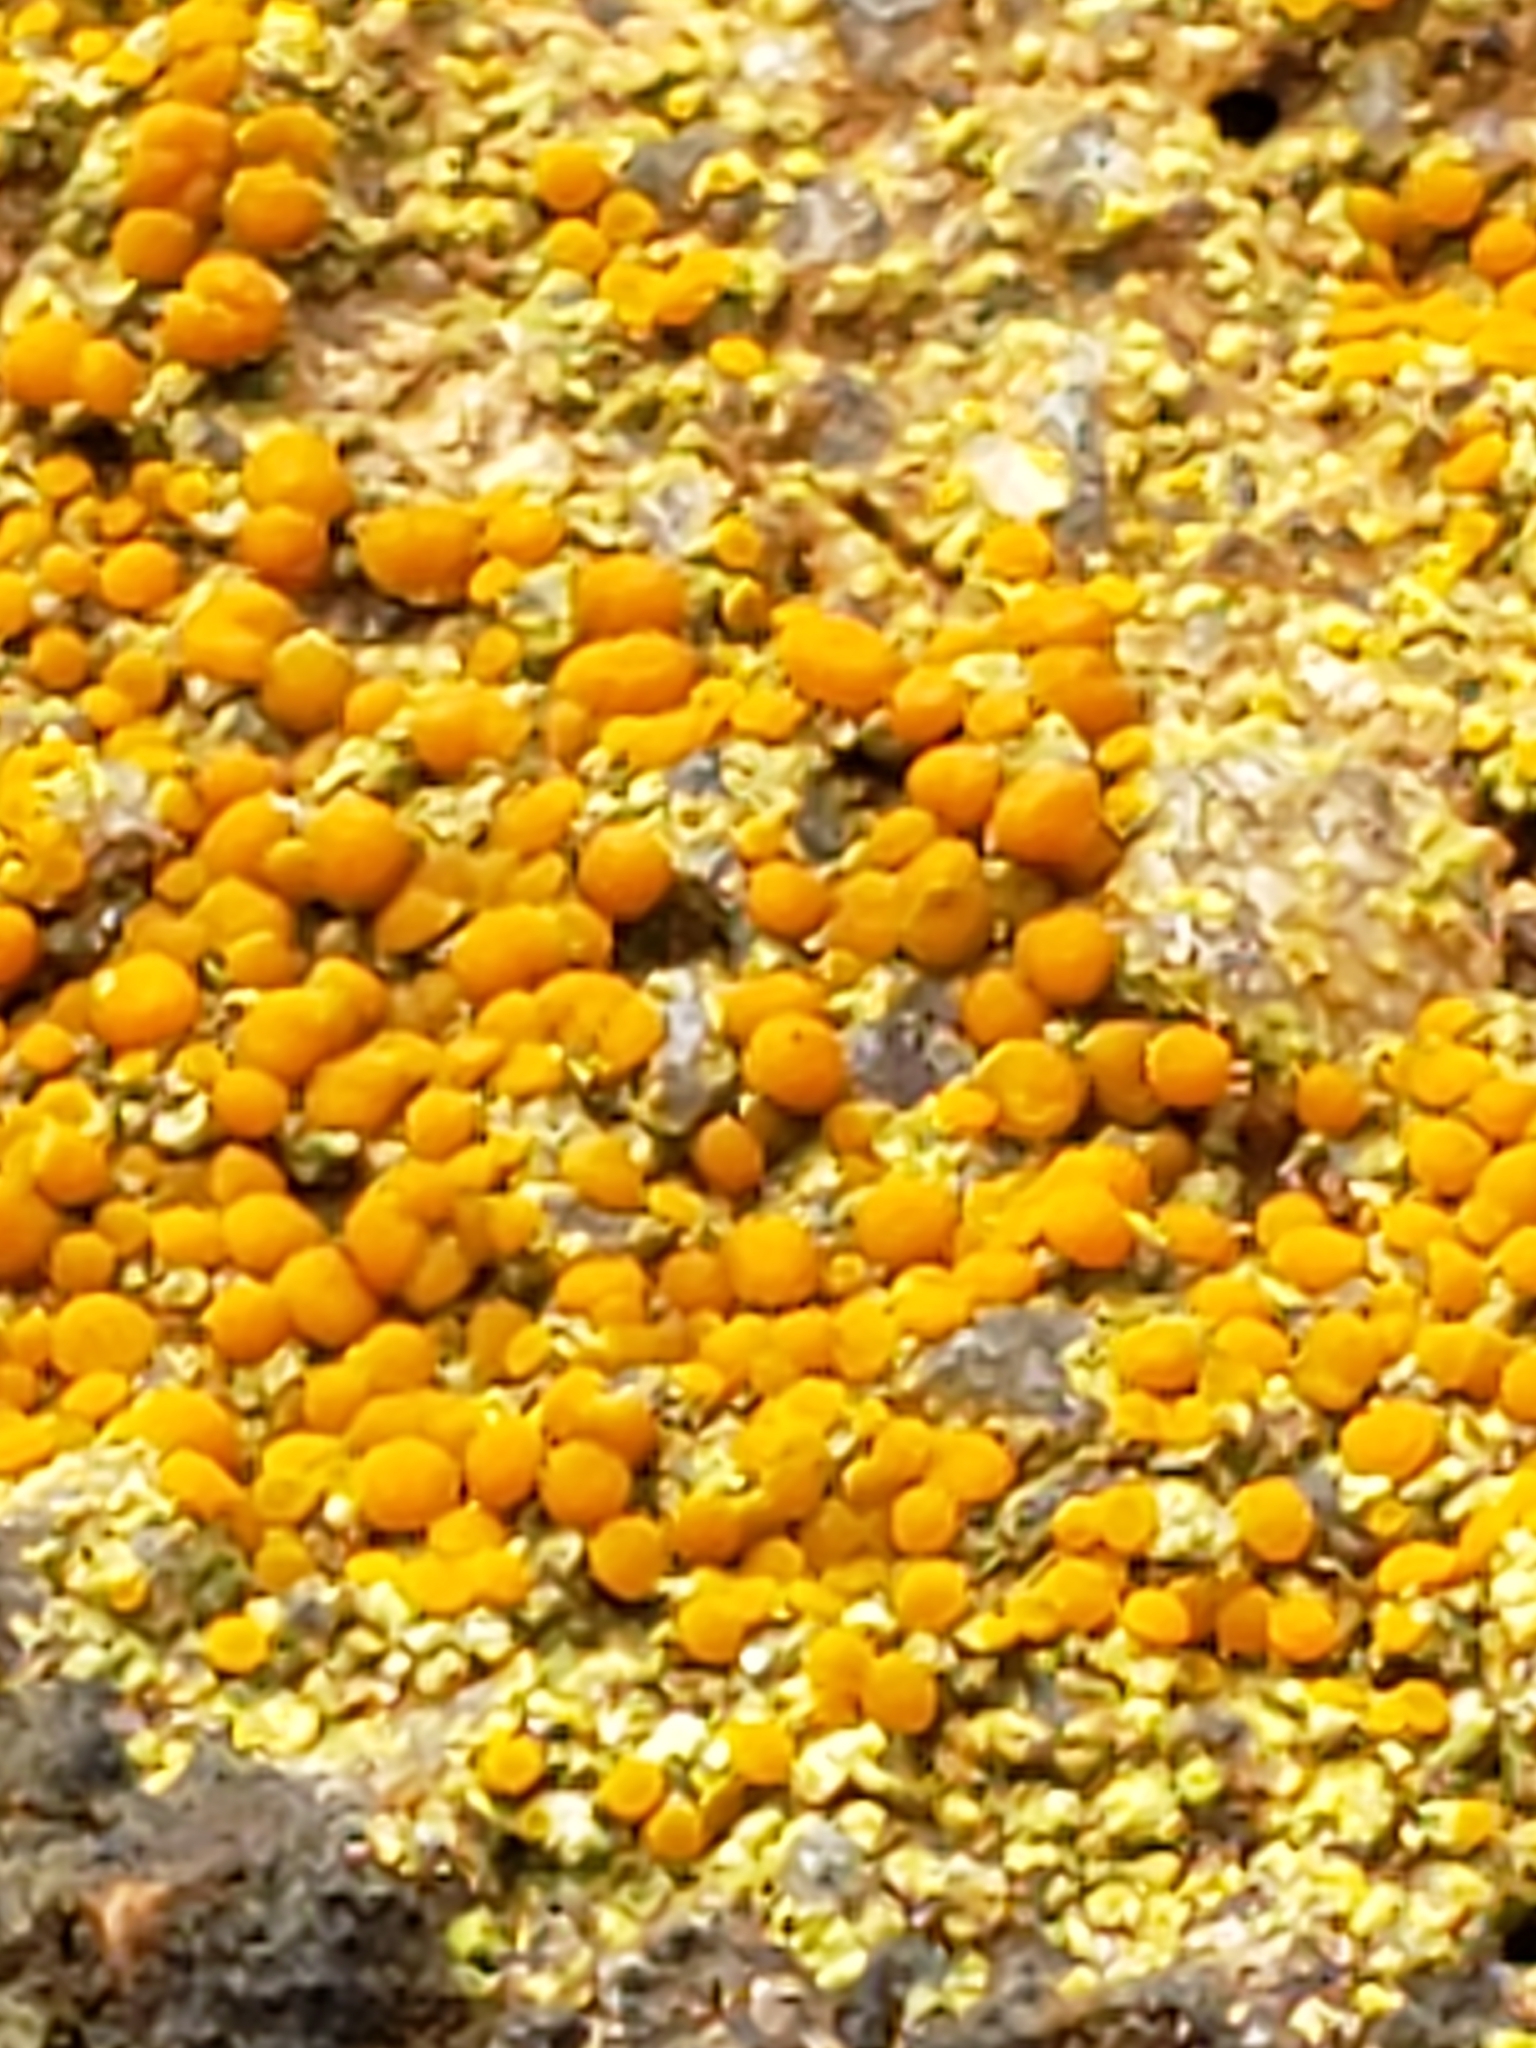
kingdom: Fungi
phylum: Ascomycota
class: Lecanoromycetes
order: Teloschistales
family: Teloschistaceae
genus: Gyalolechia
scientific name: Gyalolechia flavovirescens
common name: Sulphur firedot
